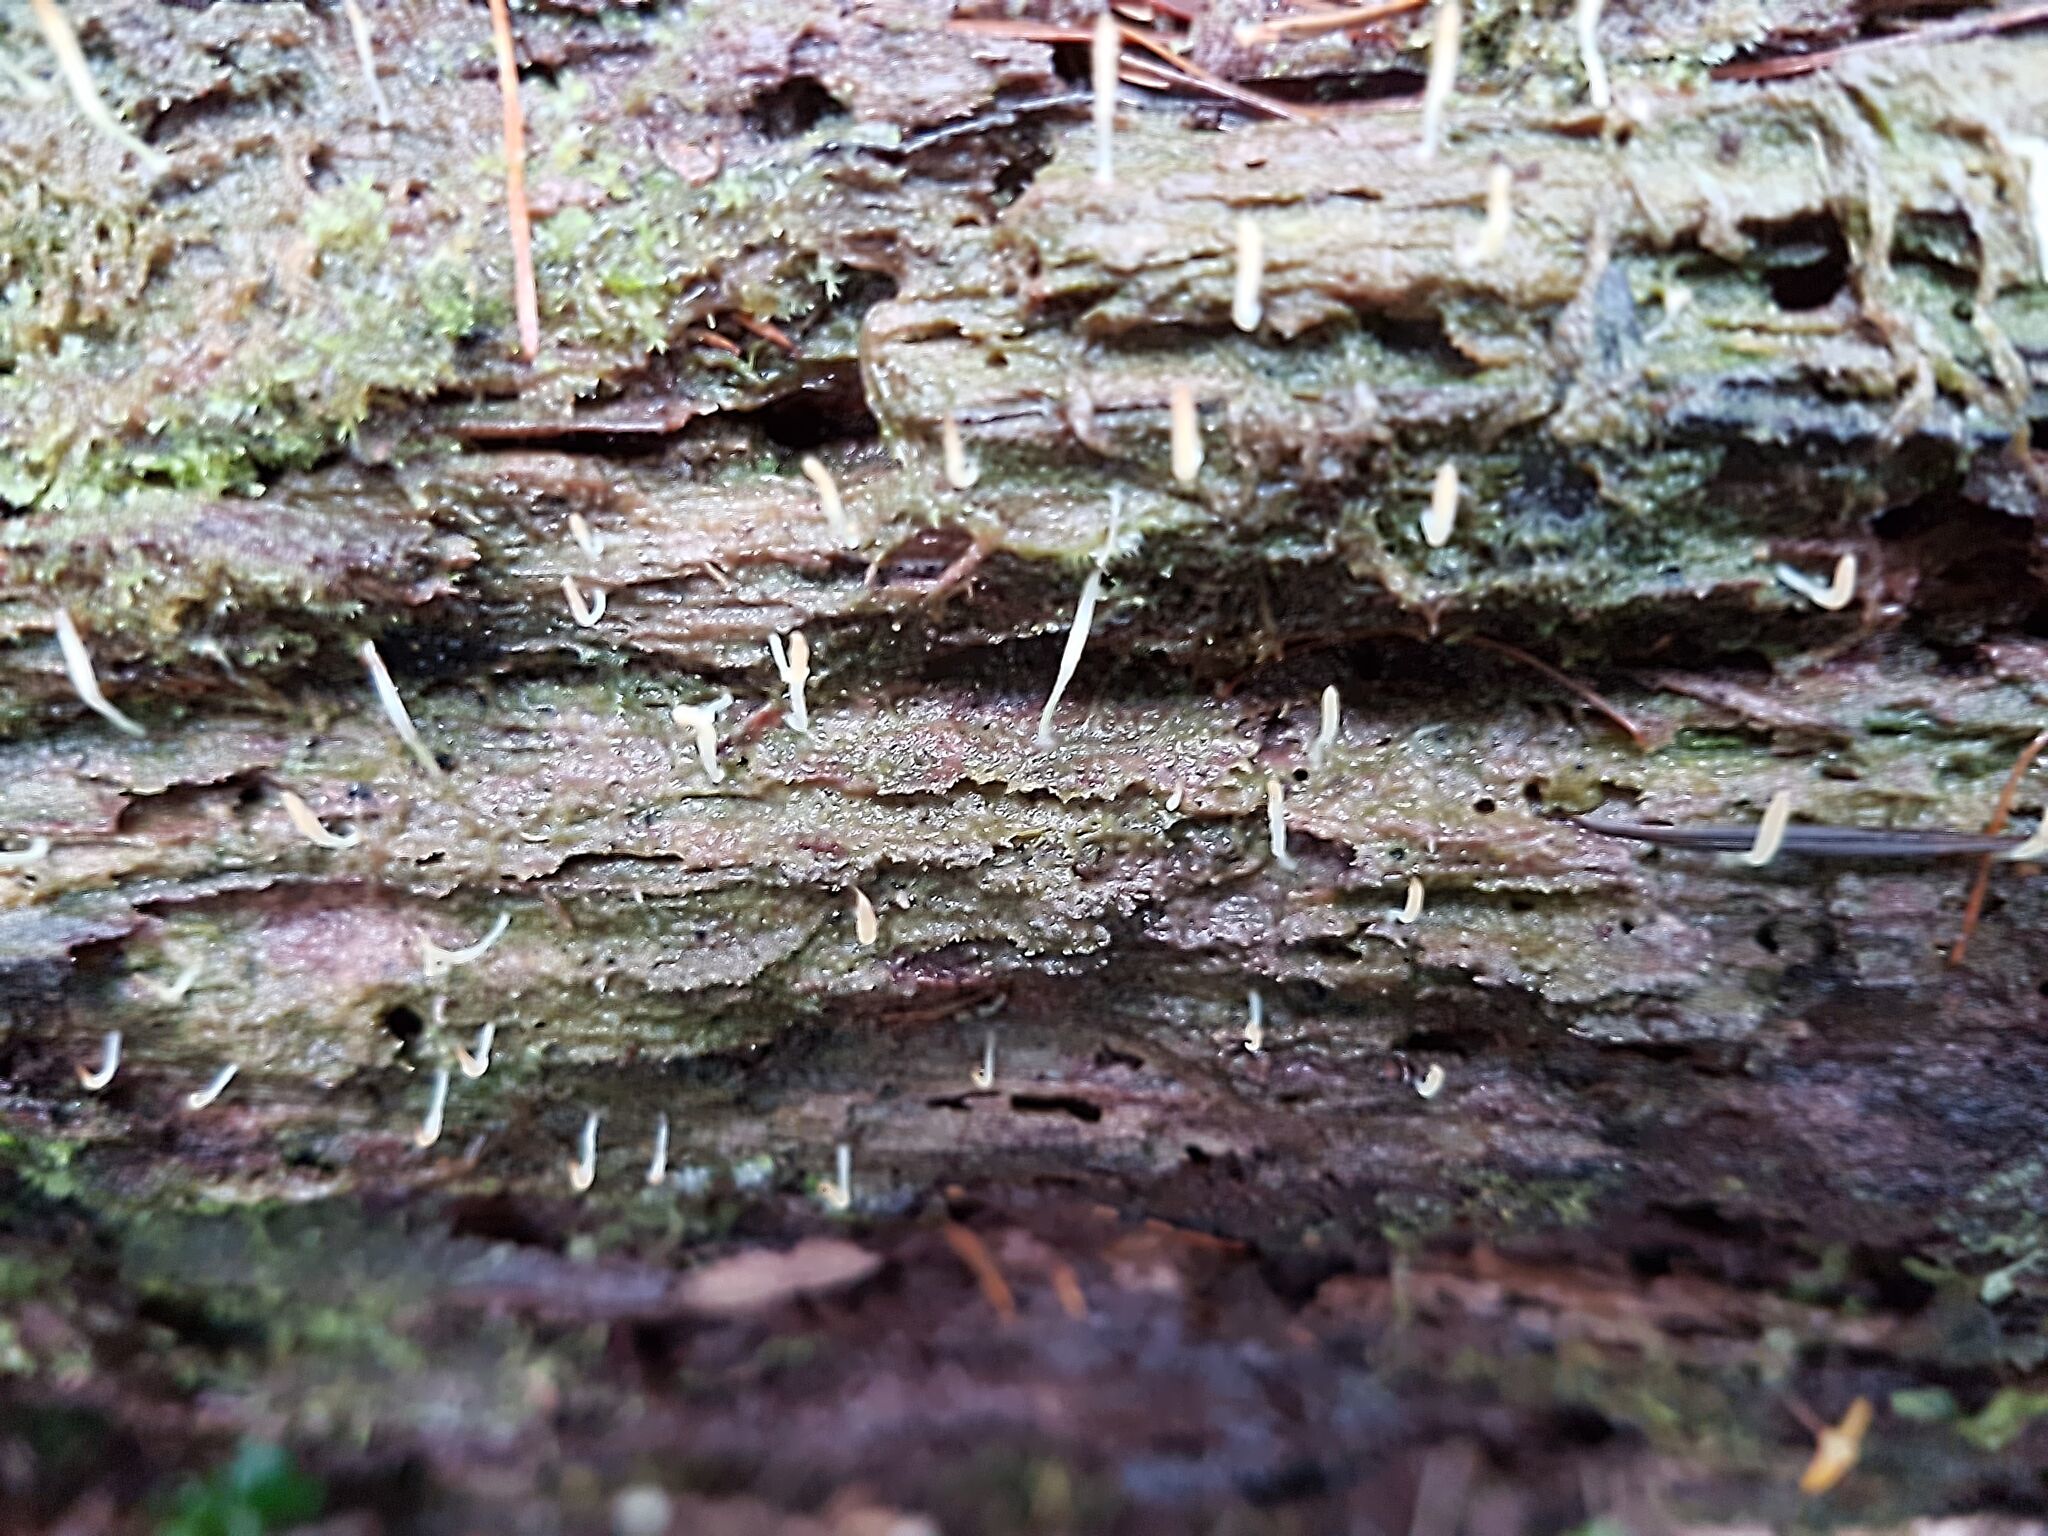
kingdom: Fungi
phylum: Basidiomycota
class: Agaricomycetes
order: Cantharellales
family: Hydnaceae
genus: Multiclavula
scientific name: Multiclavula mucida
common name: White green-algae coral
